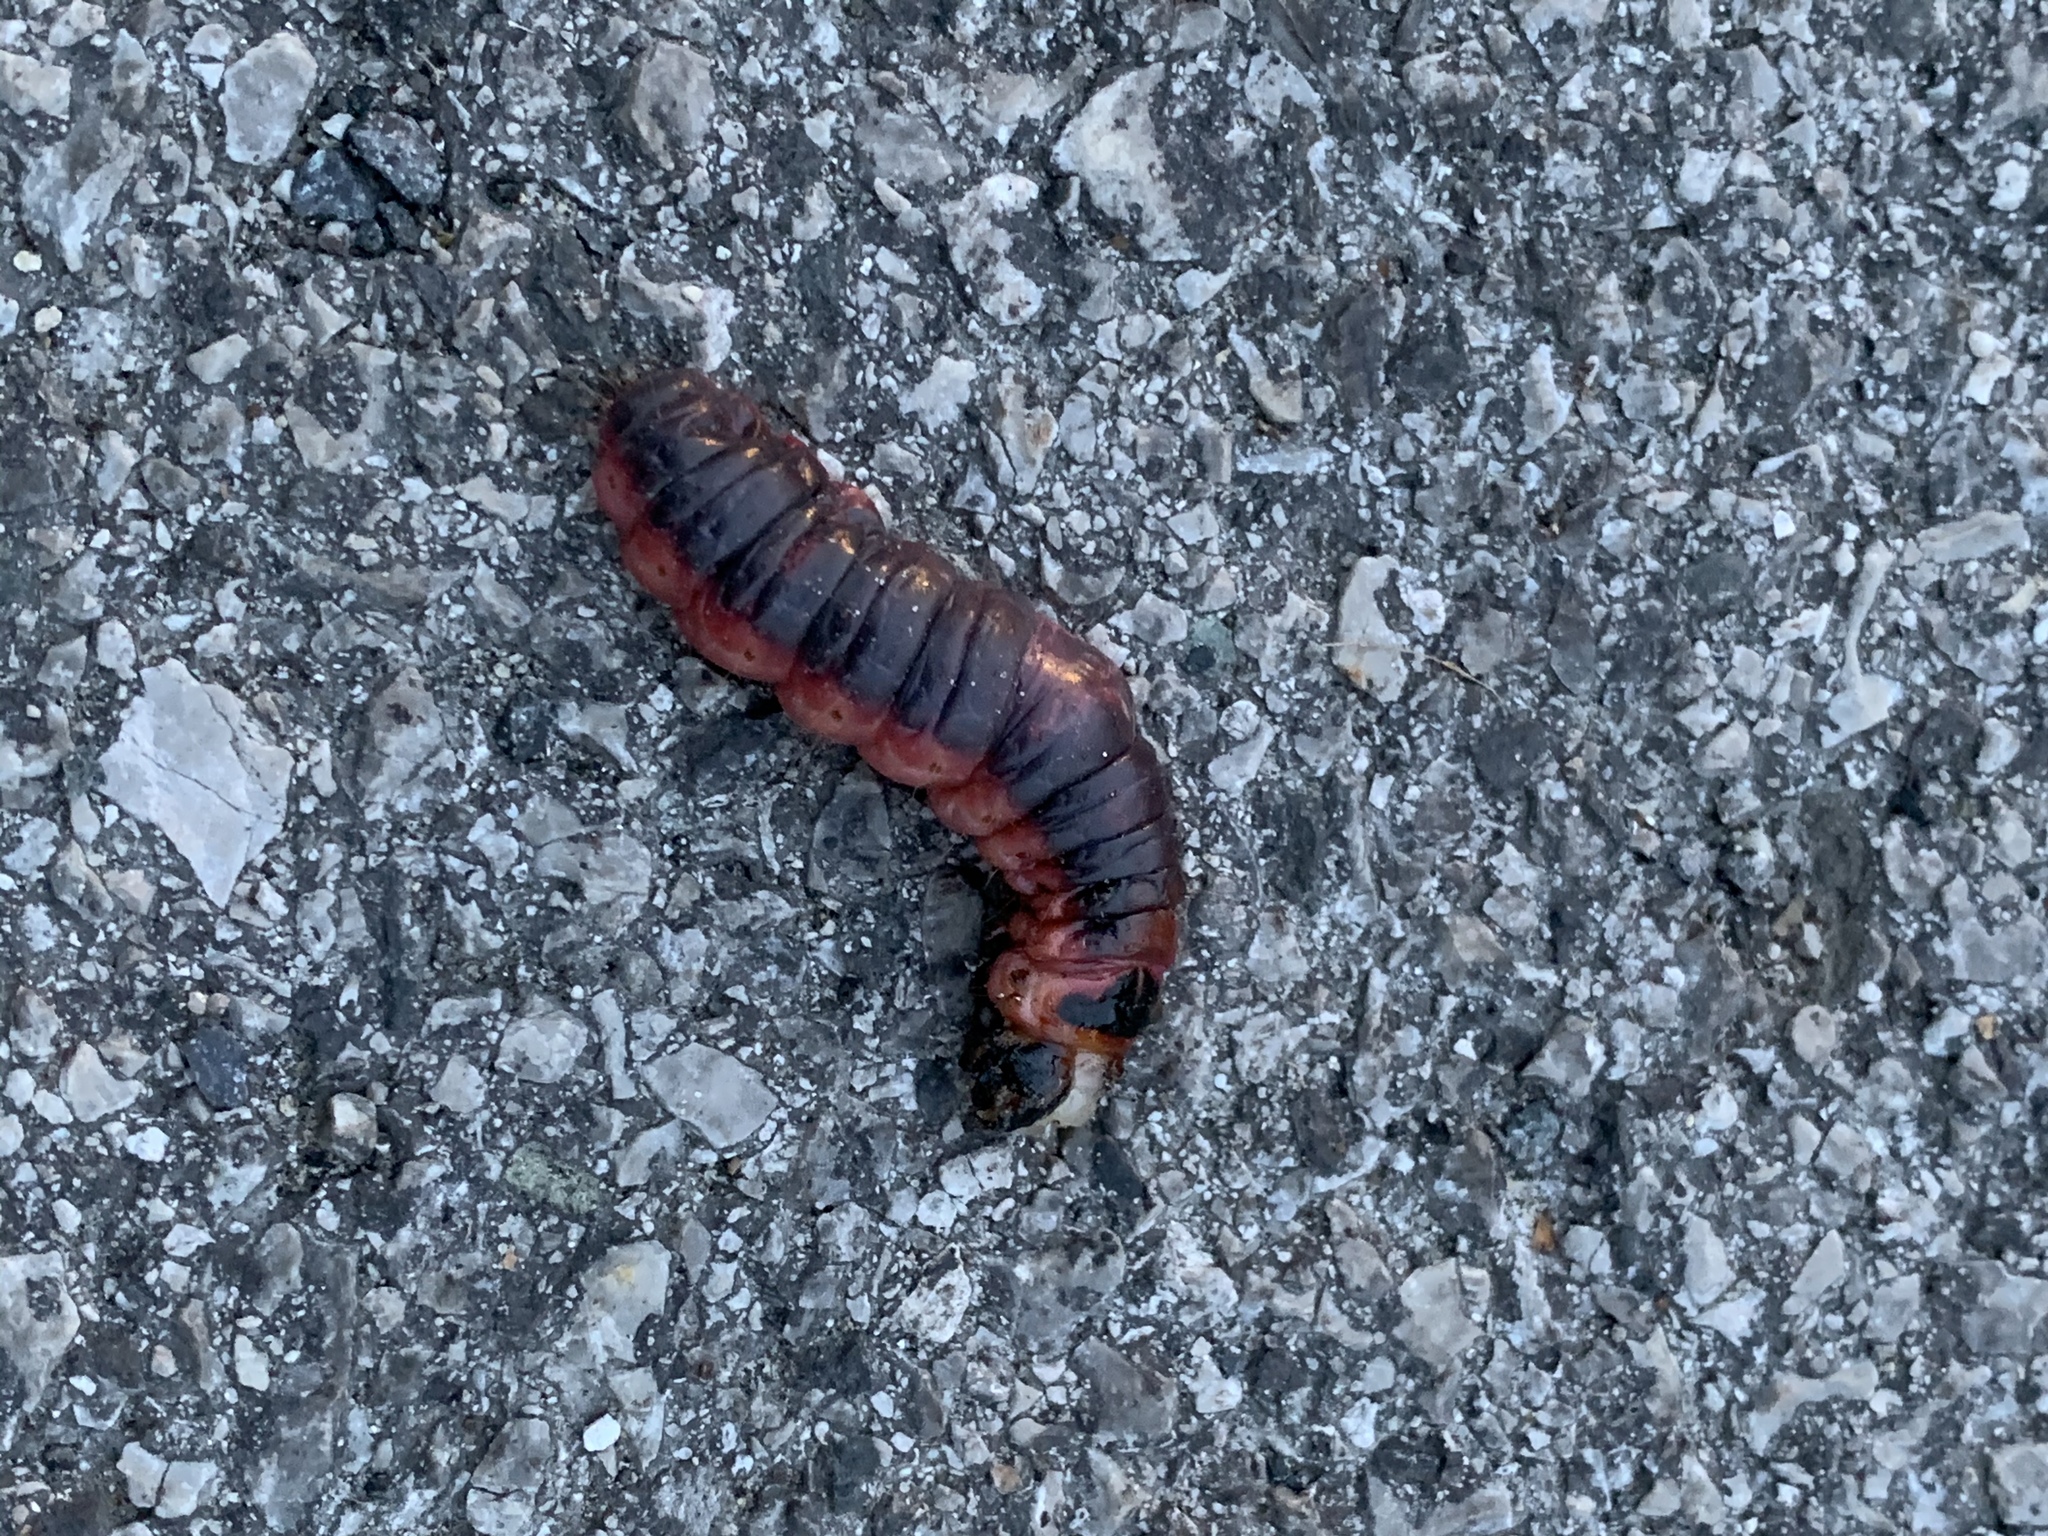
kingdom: Animalia
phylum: Arthropoda
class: Insecta
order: Lepidoptera
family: Cossidae
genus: Cossus
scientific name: Cossus cossus
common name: Goat moth
